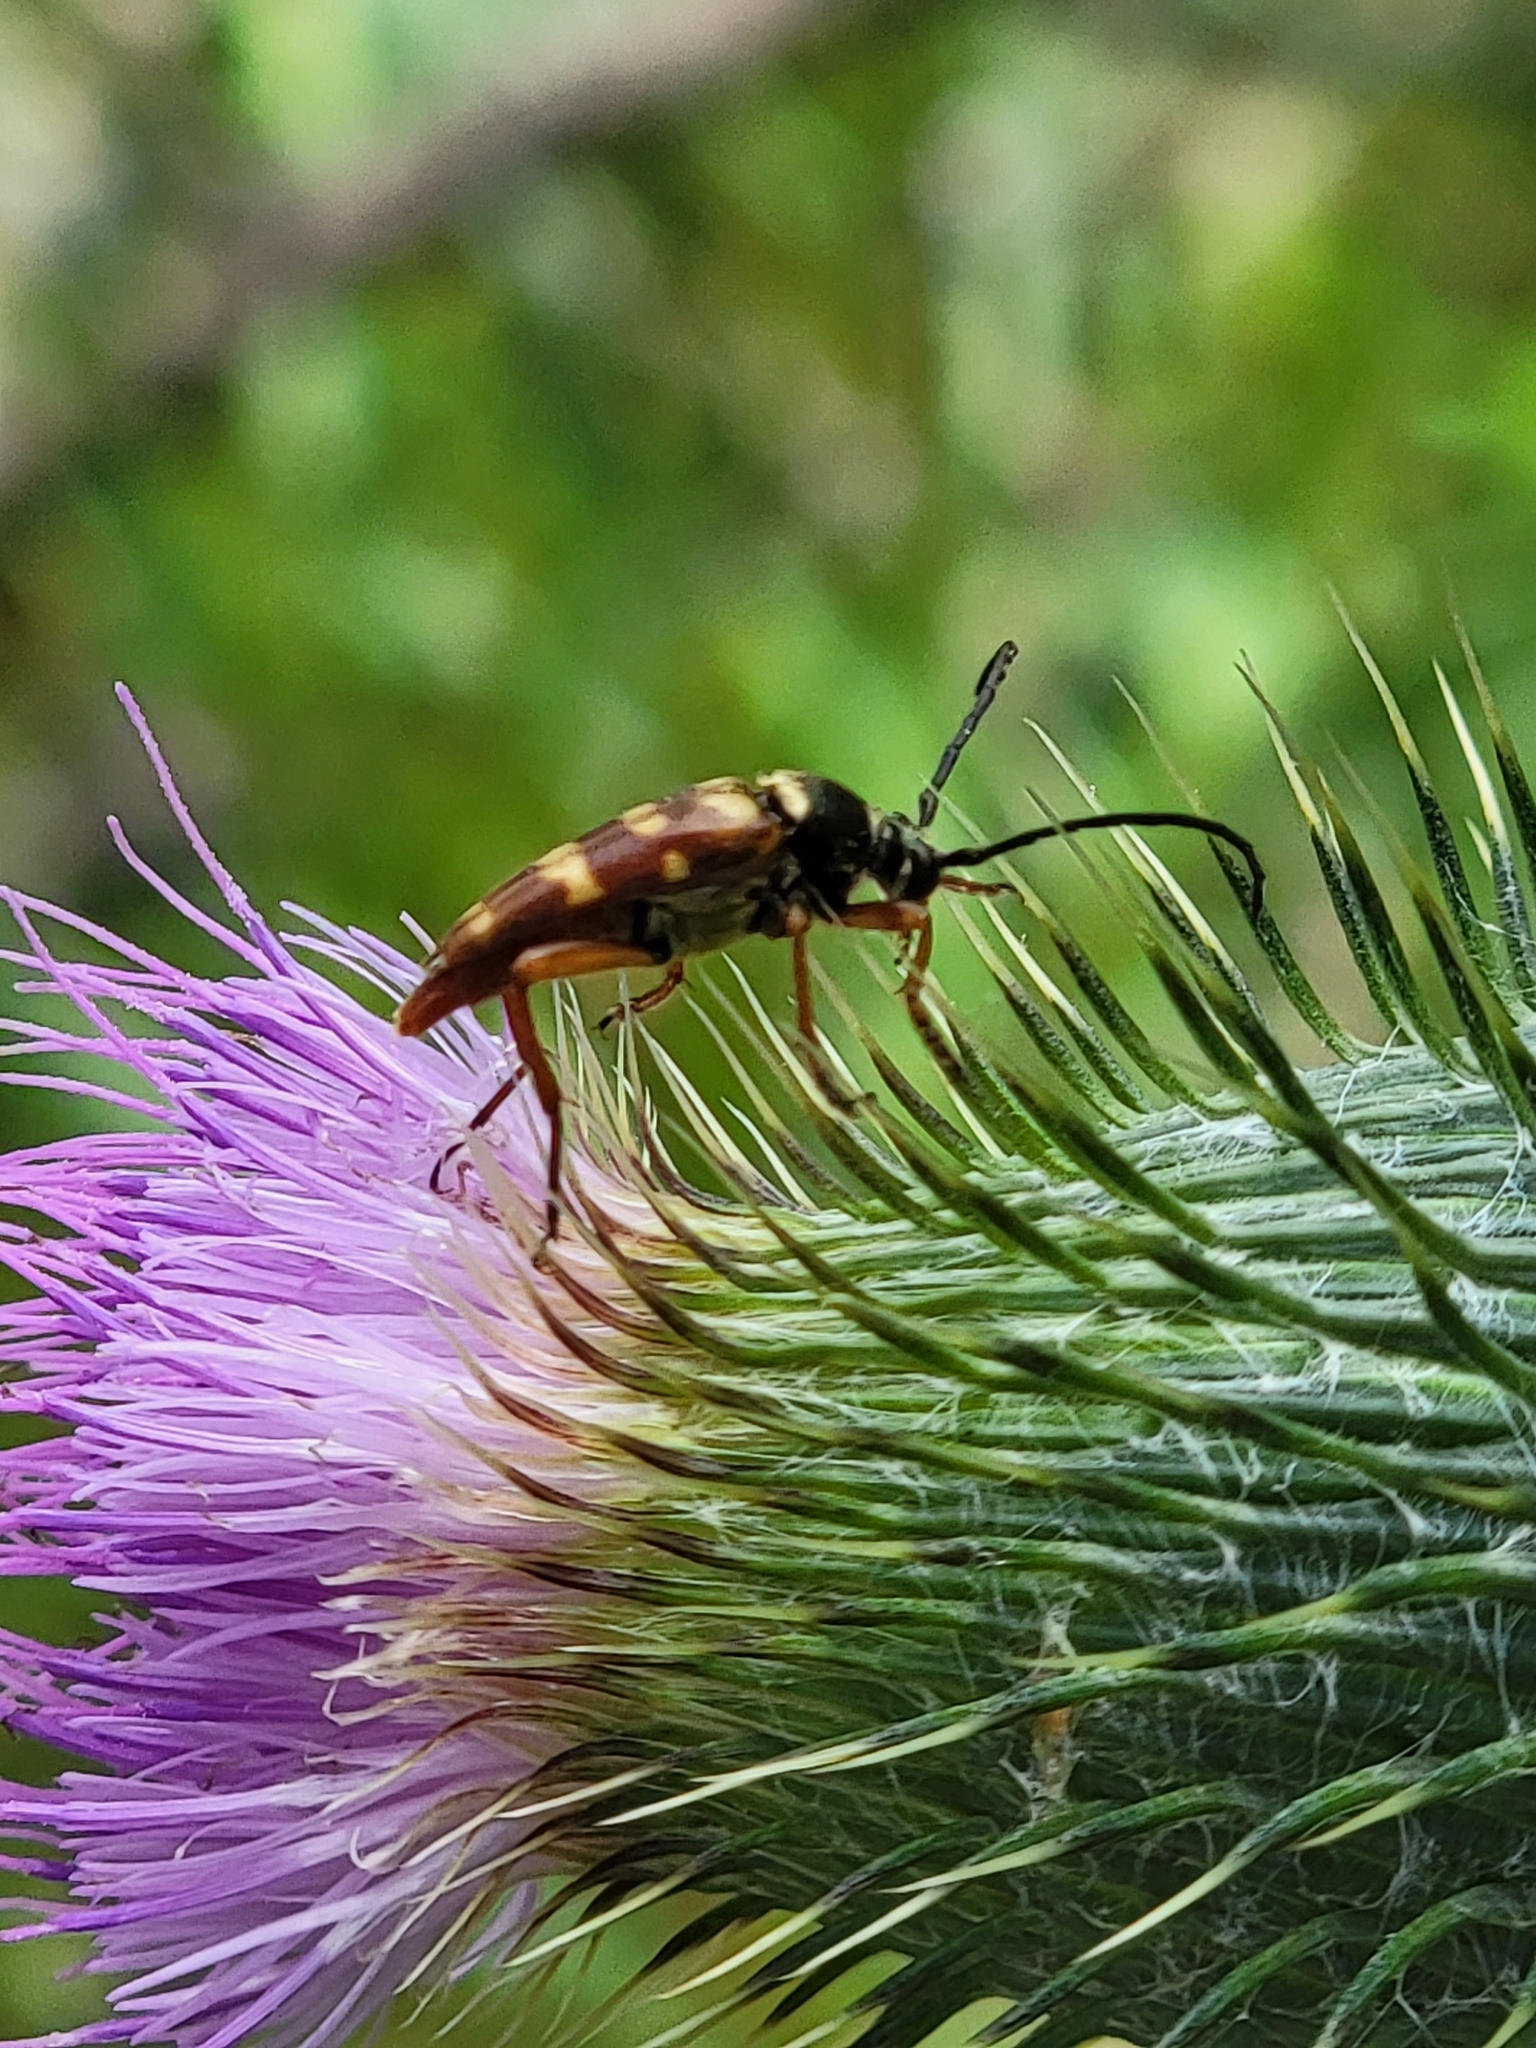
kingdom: Animalia
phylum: Arthropoda
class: Insecta
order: Coleoptera
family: Cerambycidae
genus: Typocerus
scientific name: Typocerus velutinus
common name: Banded longhorn beetle
